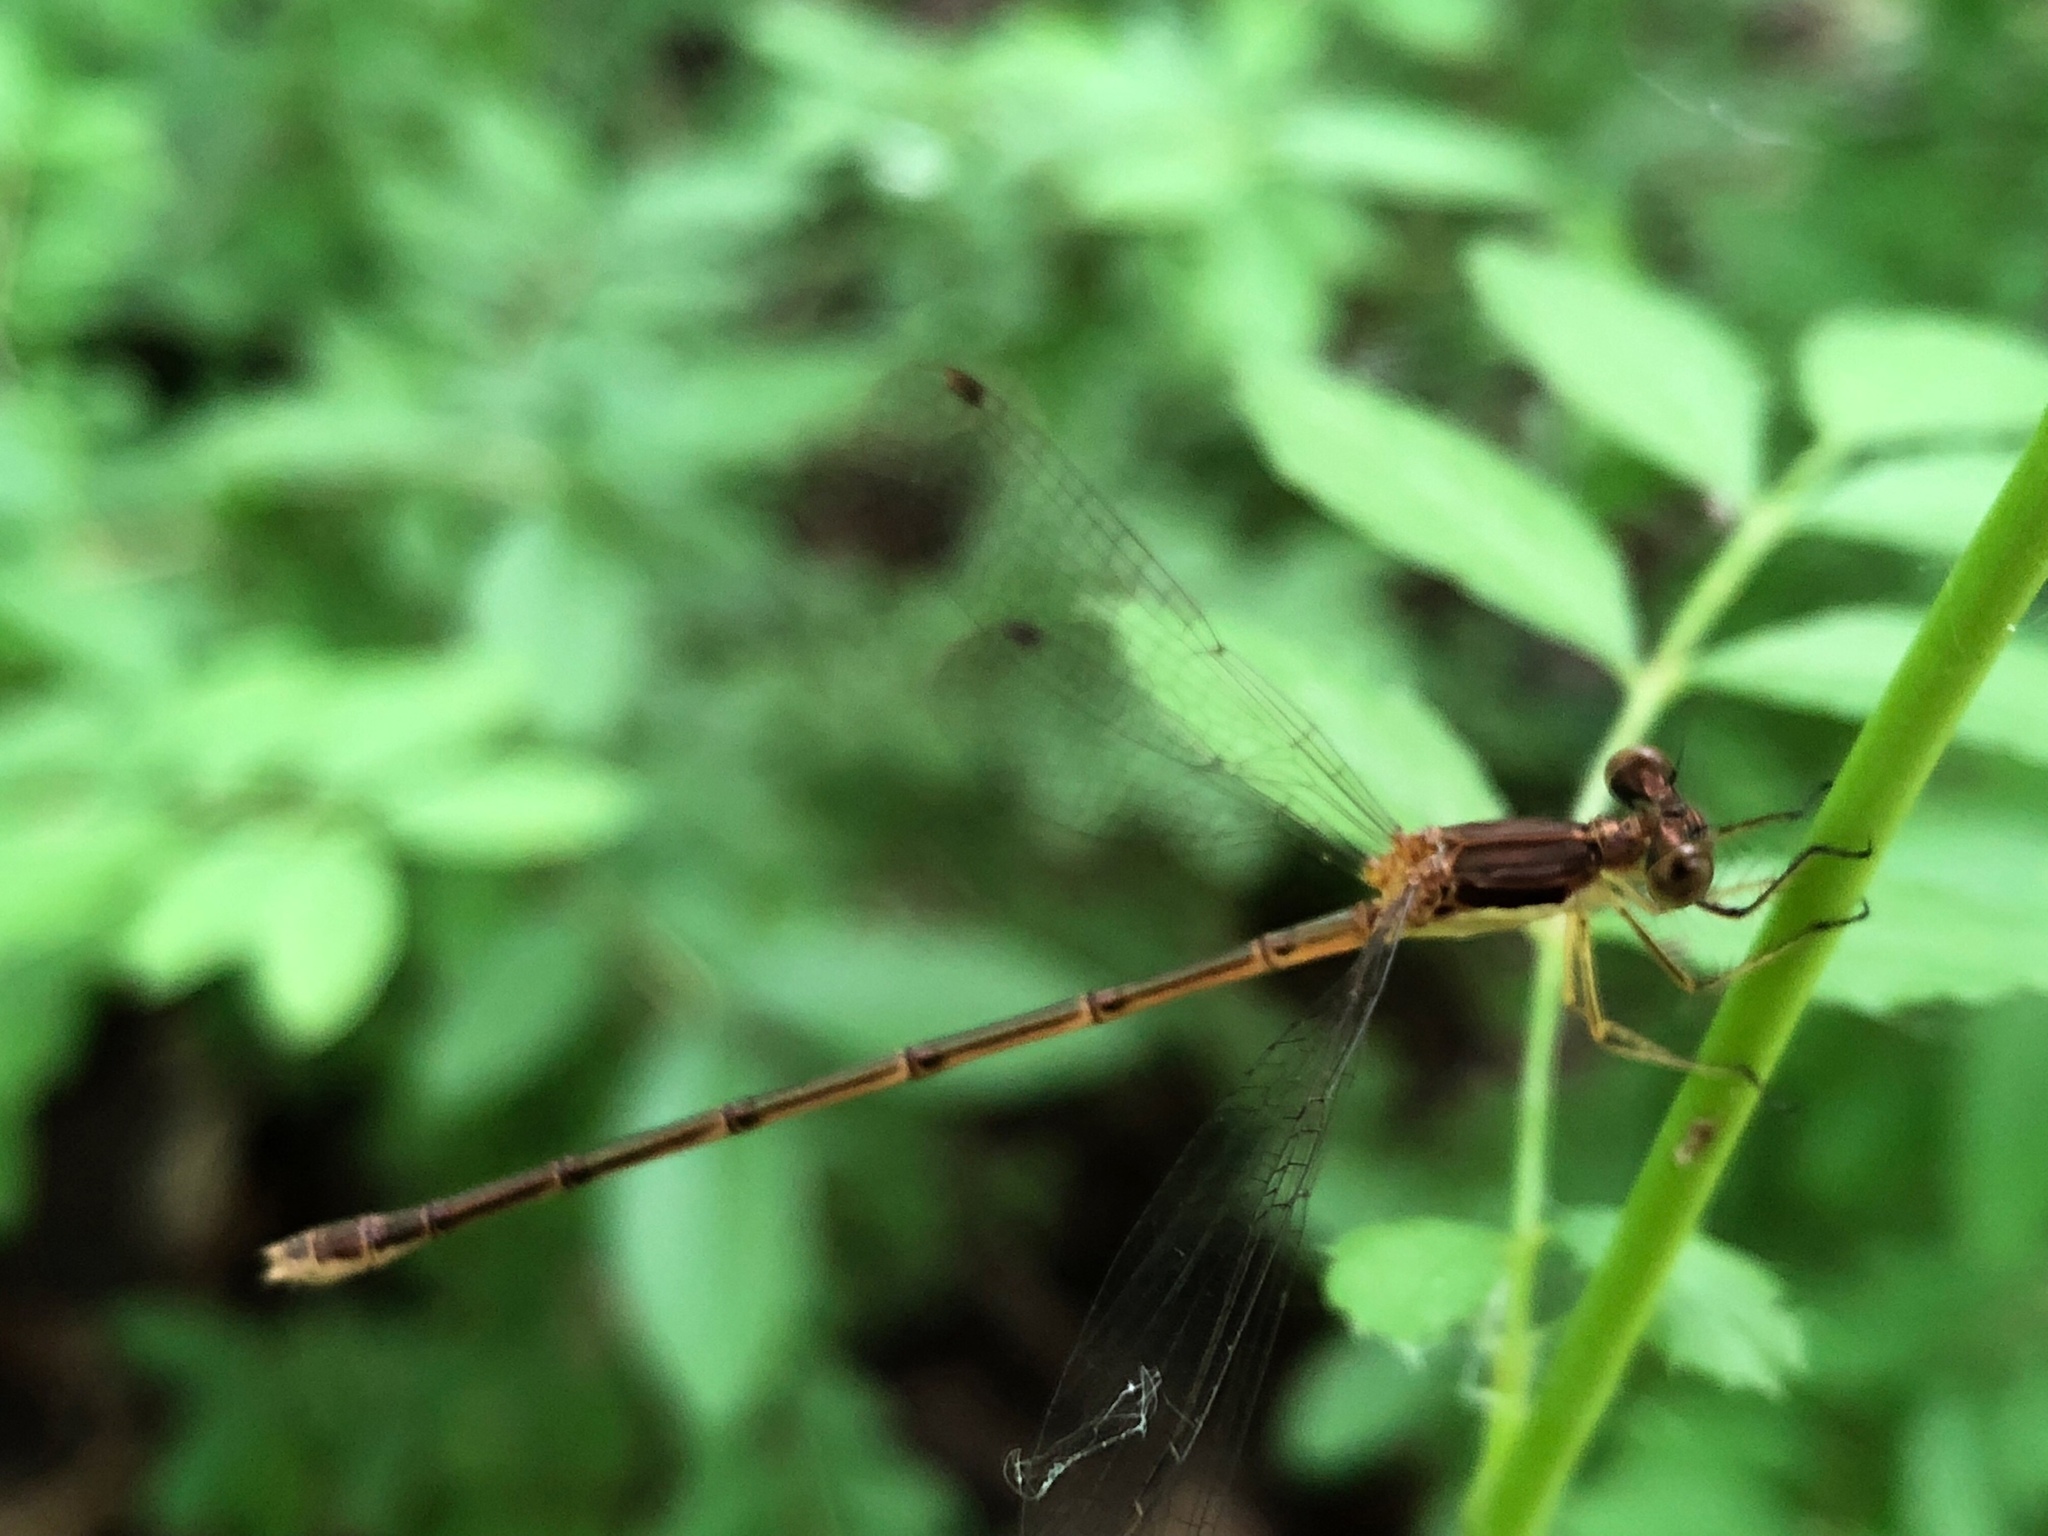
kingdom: Animalia
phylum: Arthropoda
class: Insecta
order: Odonata
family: Lestidae
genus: Lestes
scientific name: Lestes rectangularis
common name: Slender spreadwing
